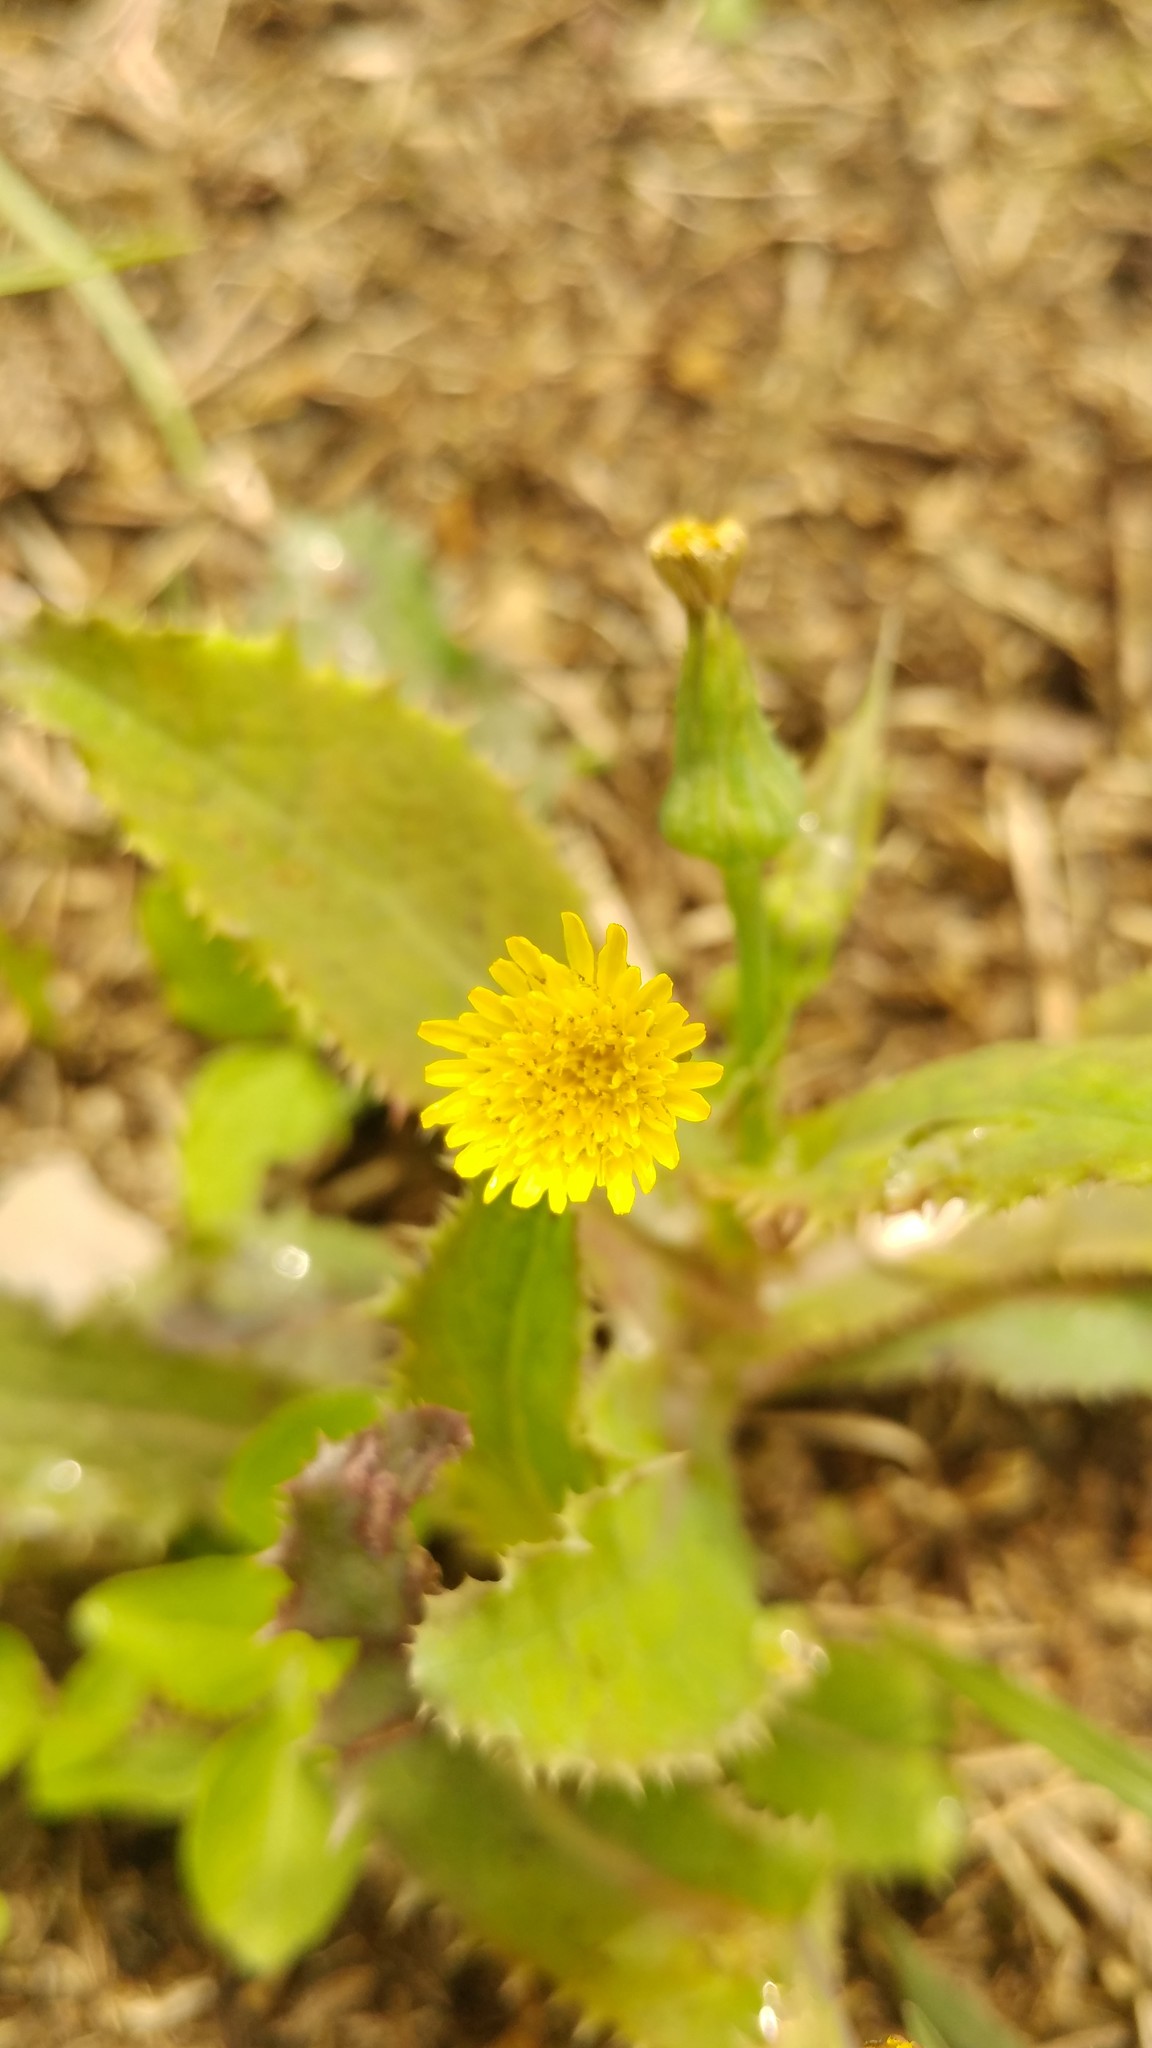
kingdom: Plantae
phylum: Tracheophyta
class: Magnoliopsida
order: Asterales
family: Asteraceae
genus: Sonchus
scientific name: Sonchus oleraceus
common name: Common sowthistle
